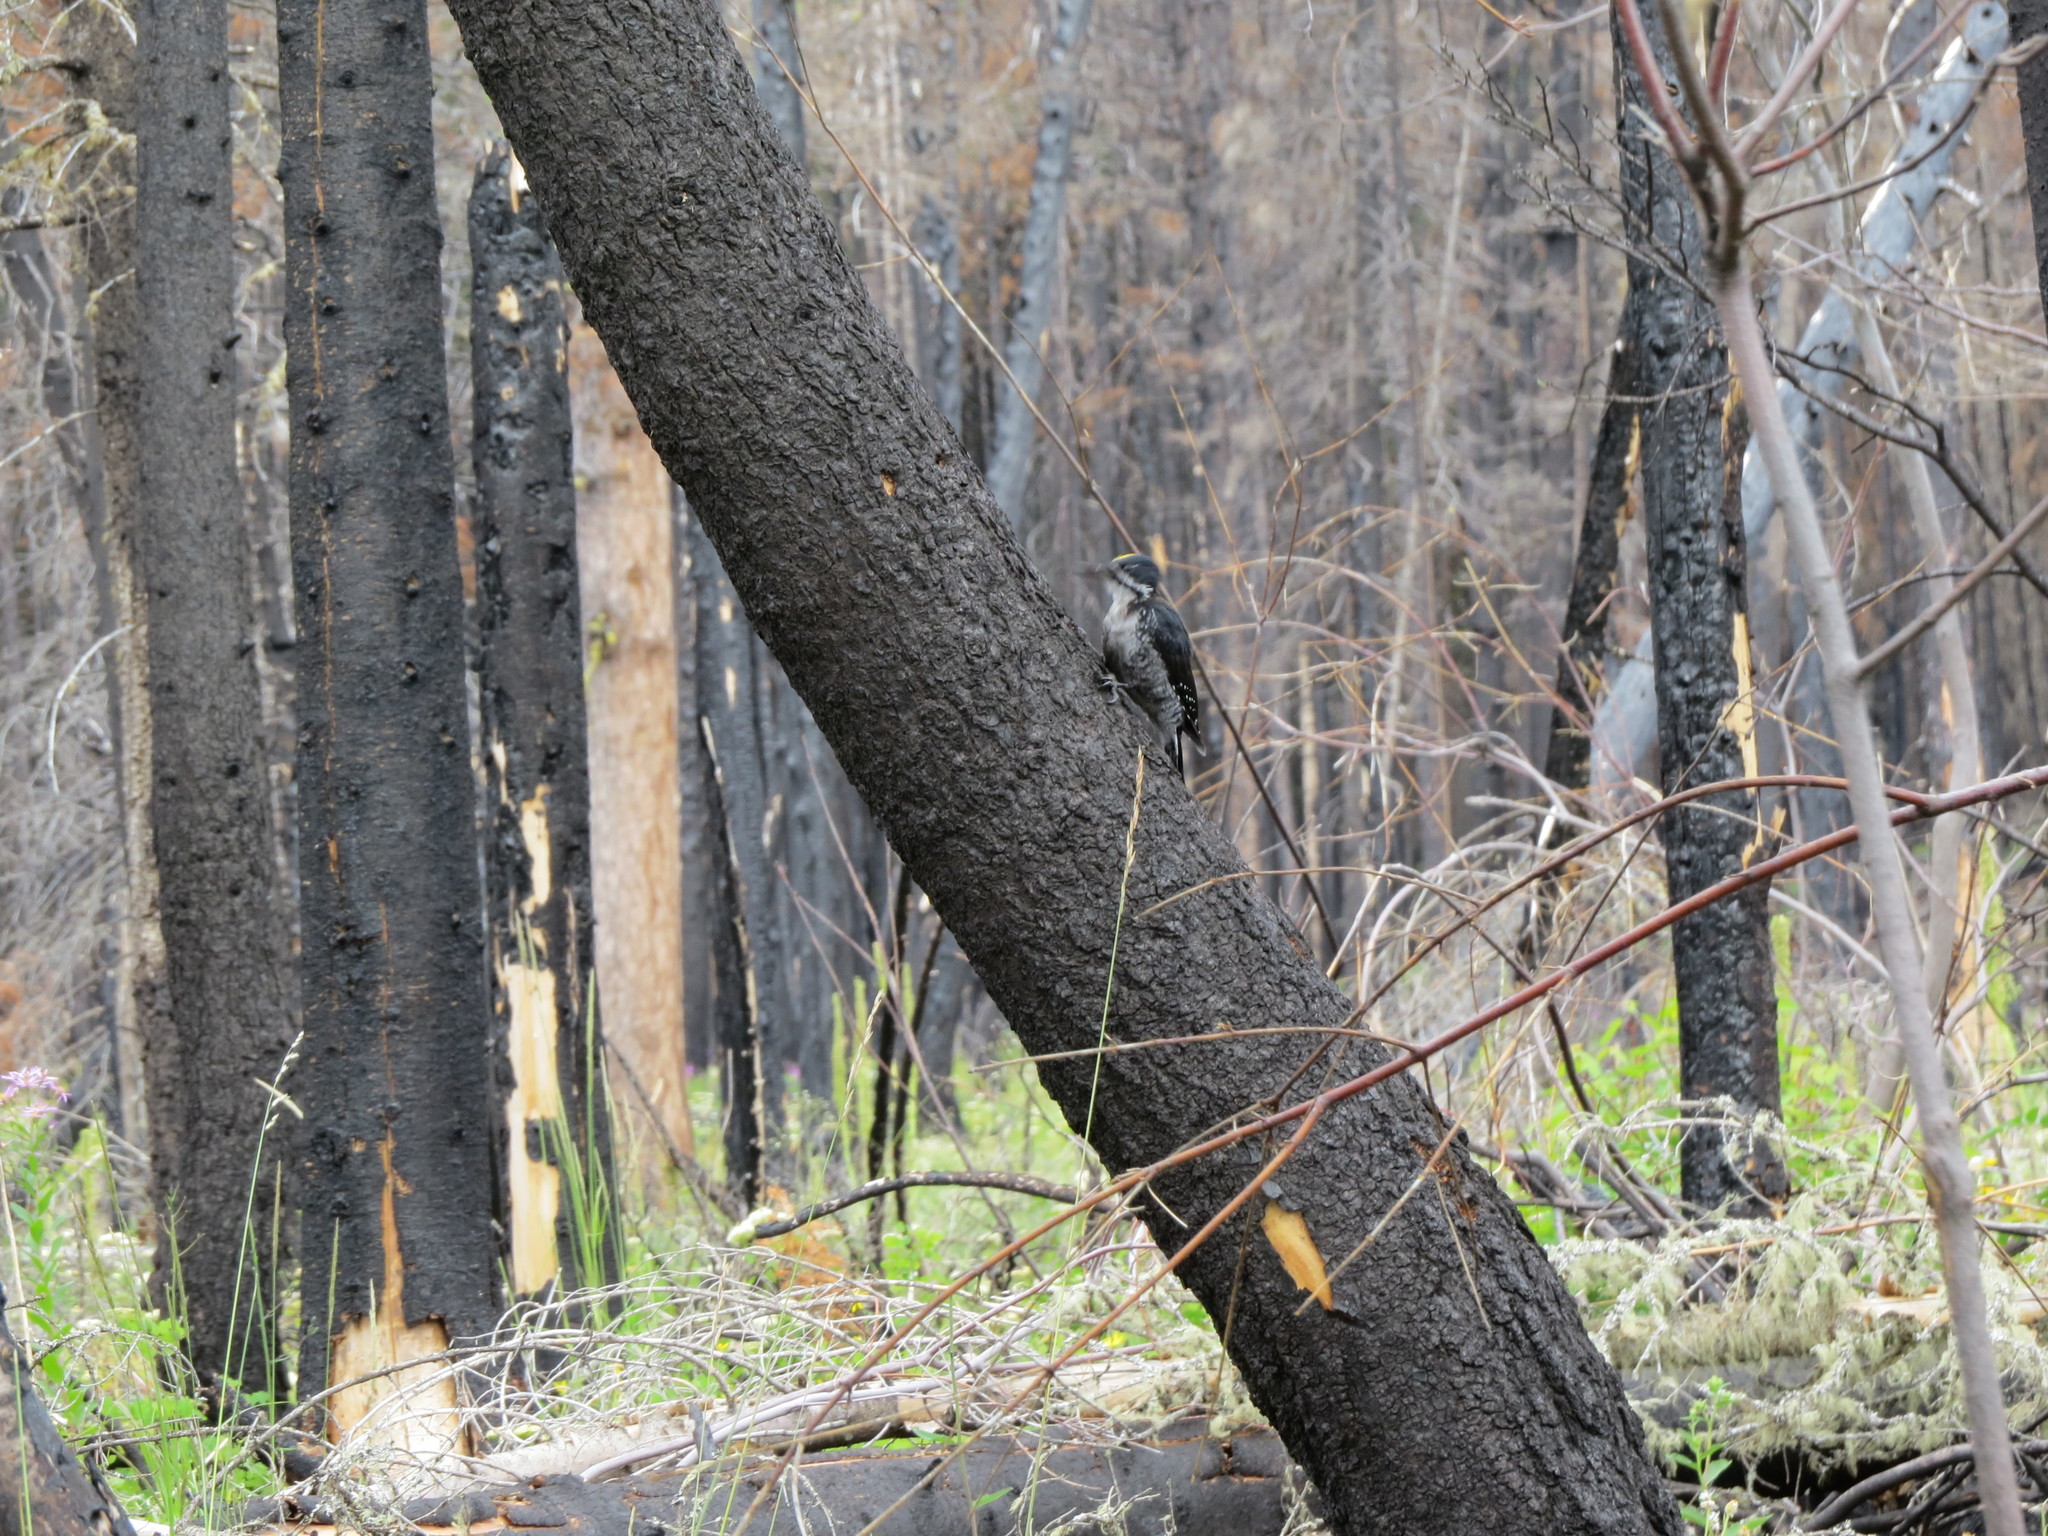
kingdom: Animalia
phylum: Chordata
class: Aves
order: Piciformes
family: Picidae
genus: Picoides
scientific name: Picoides arcticus
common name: Black-backed woodpecker
